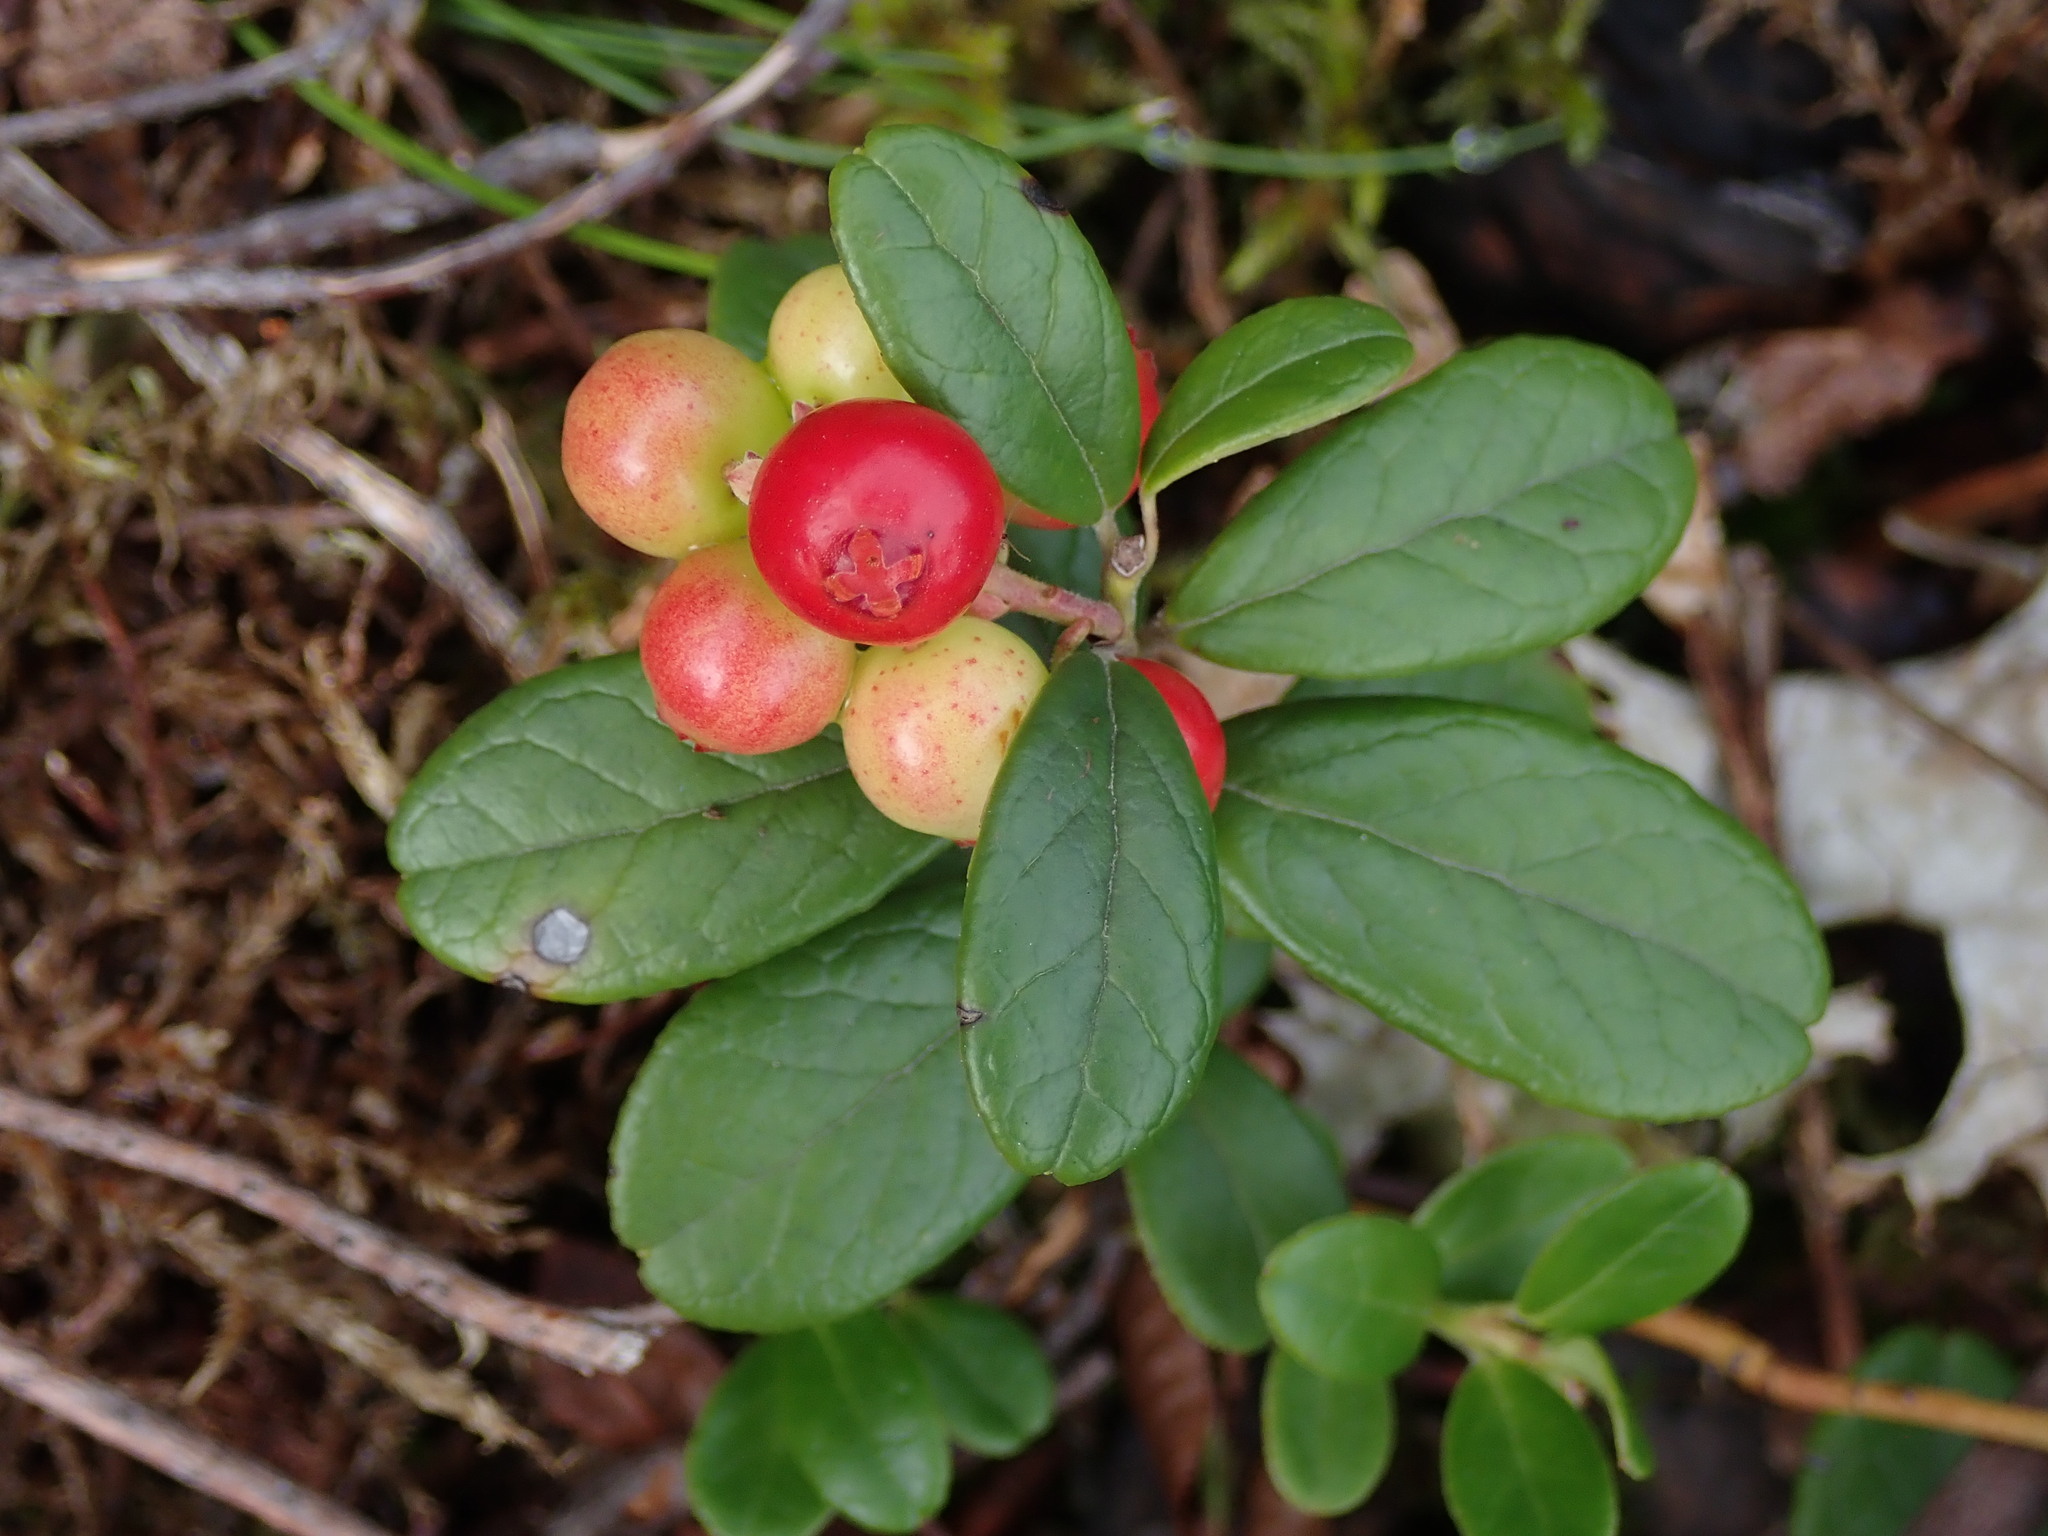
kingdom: Plantae
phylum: Tracheophyta
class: Magnoliopsida
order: Ericales
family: Ericaceae
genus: Vaccinium
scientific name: Vaccinium vitis-idaea
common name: Cowberry
